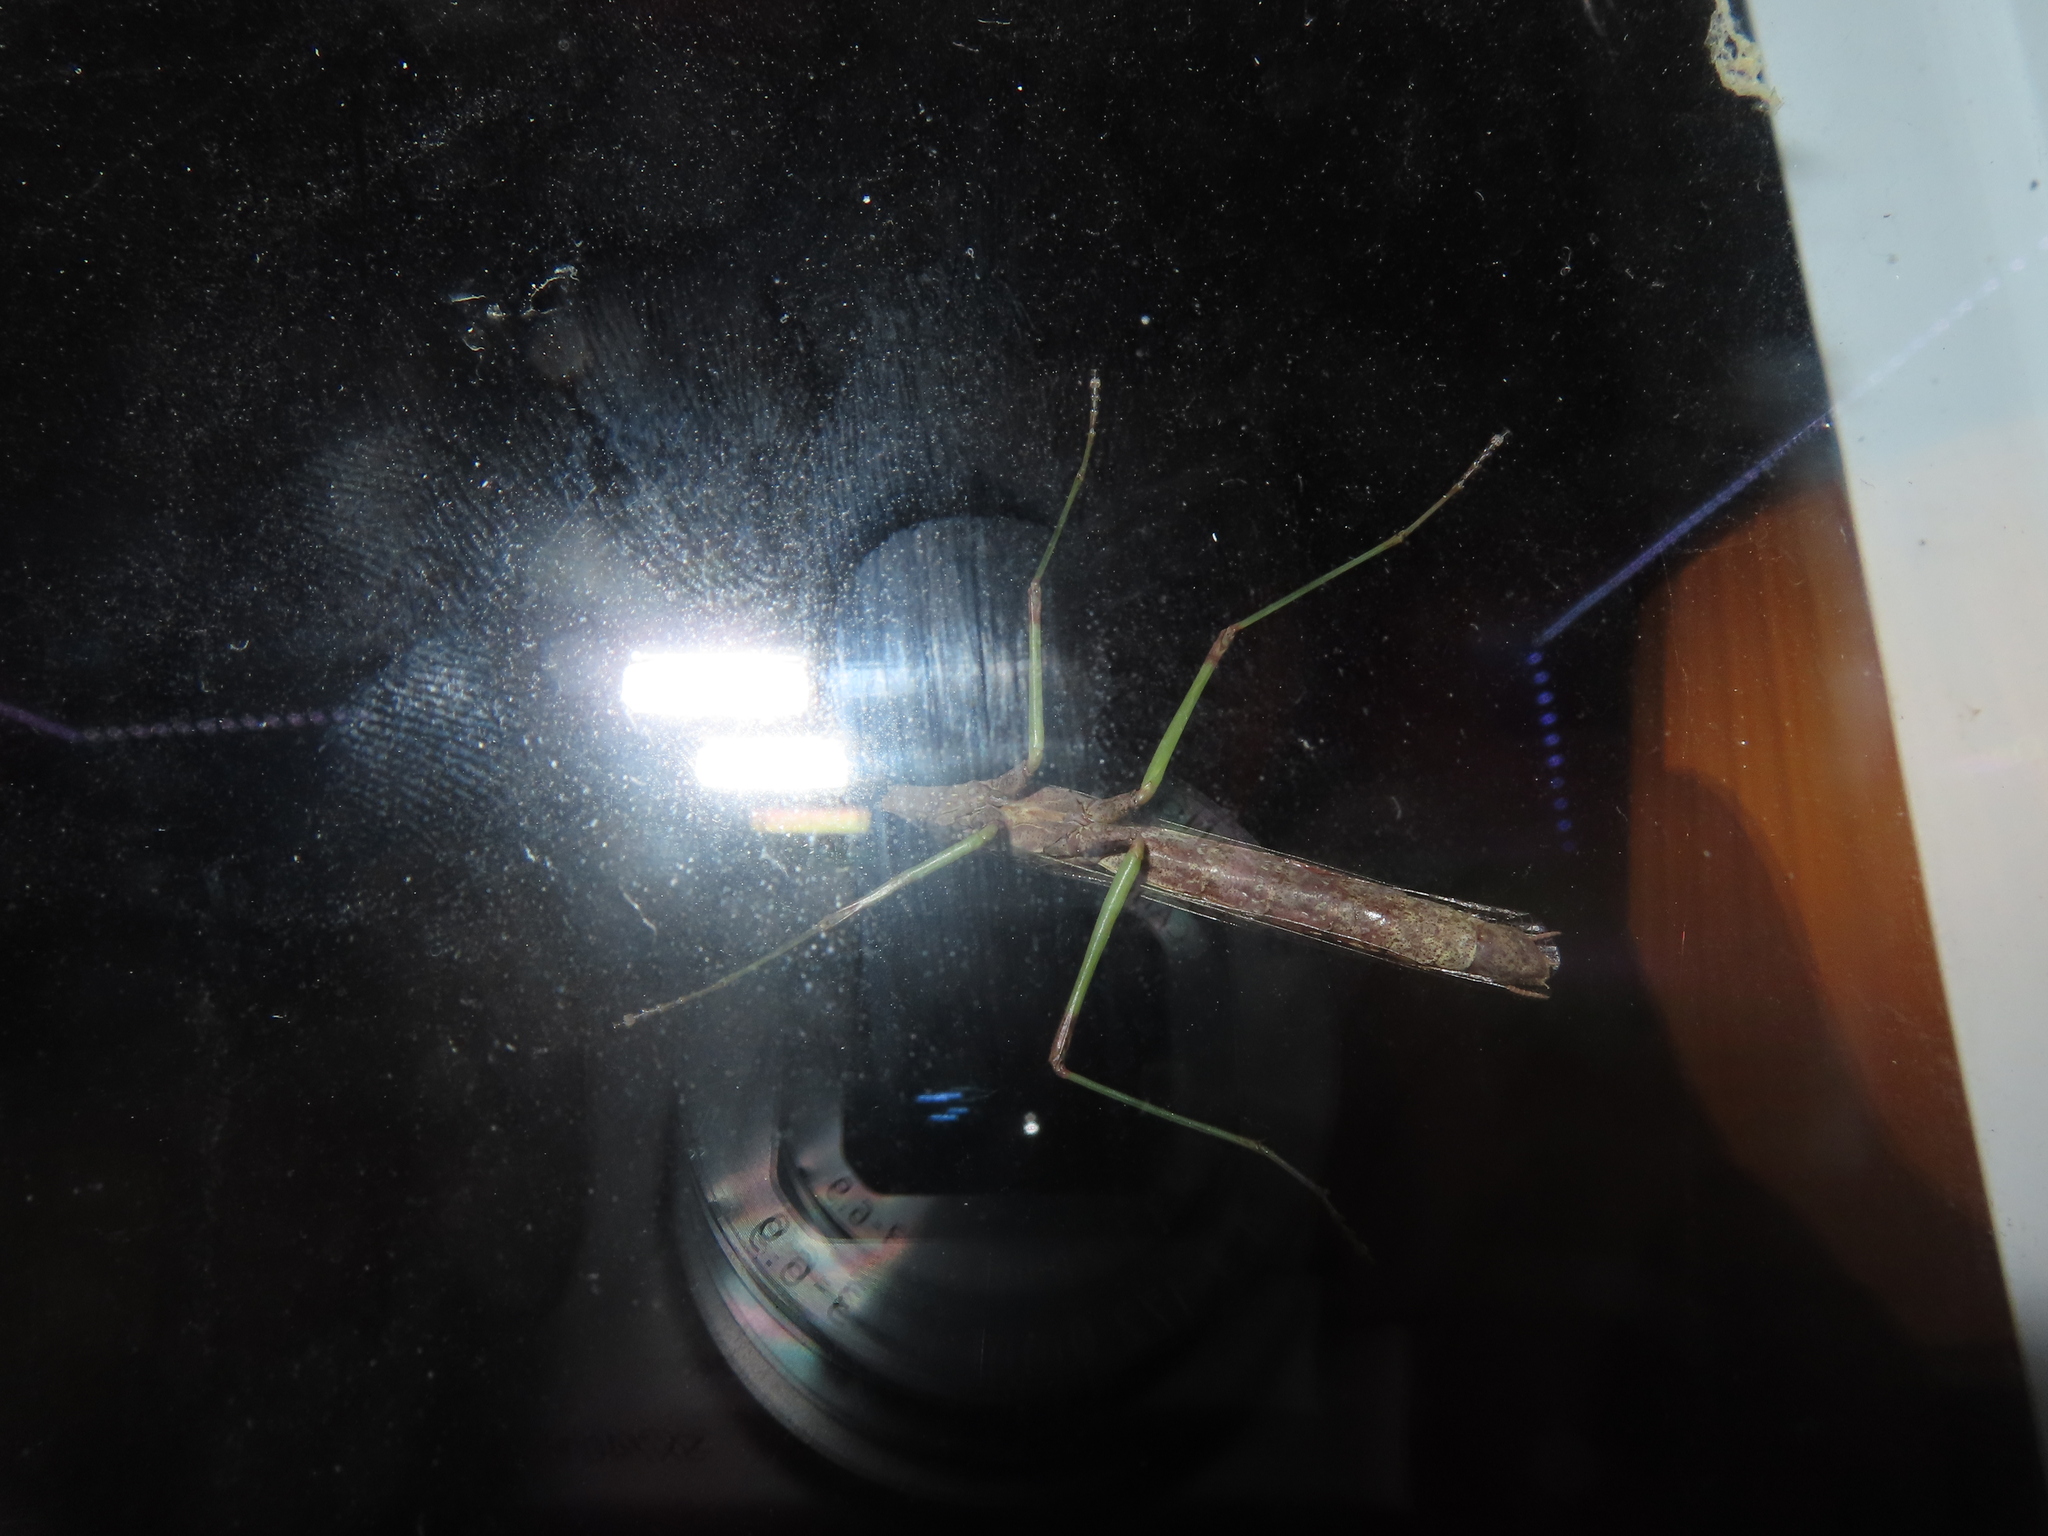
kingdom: Animalia
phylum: Arthropoda
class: Insecta
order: Mantodea
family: Mantidae
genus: Stagmomantis
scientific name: Stagmomantis carolina
